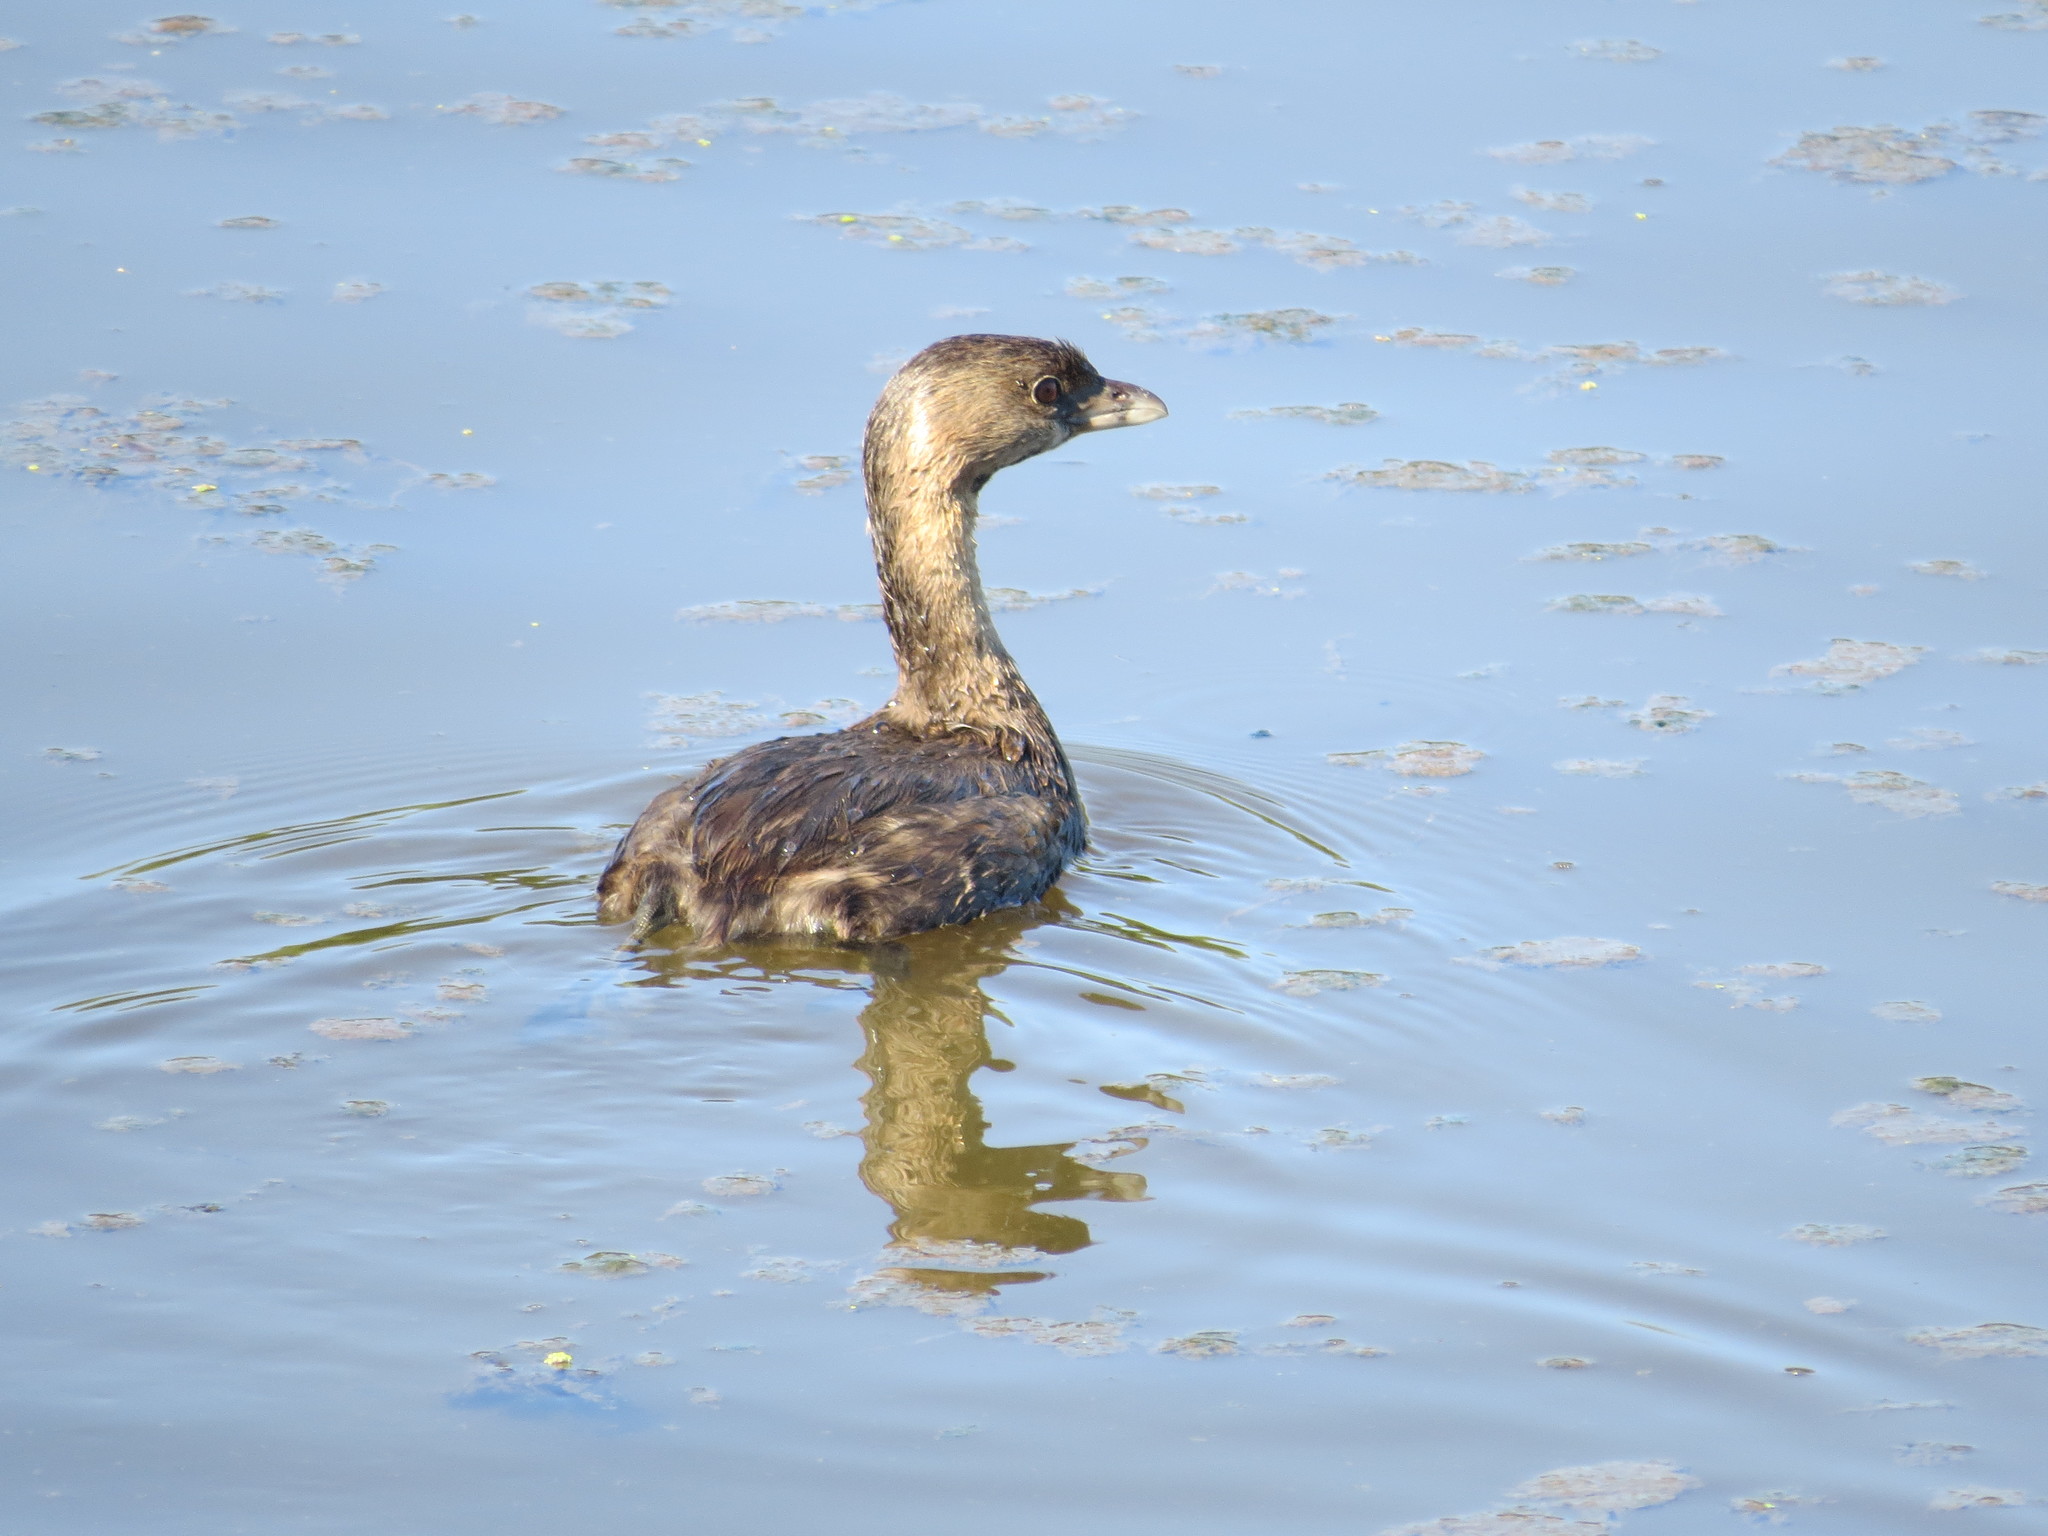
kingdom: Animalia
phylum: Chordata
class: Aves
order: Podicipediformes
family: Podicipedidae
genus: Podilymbus
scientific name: Podilymbus podiceps
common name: Pied-billed grebe
